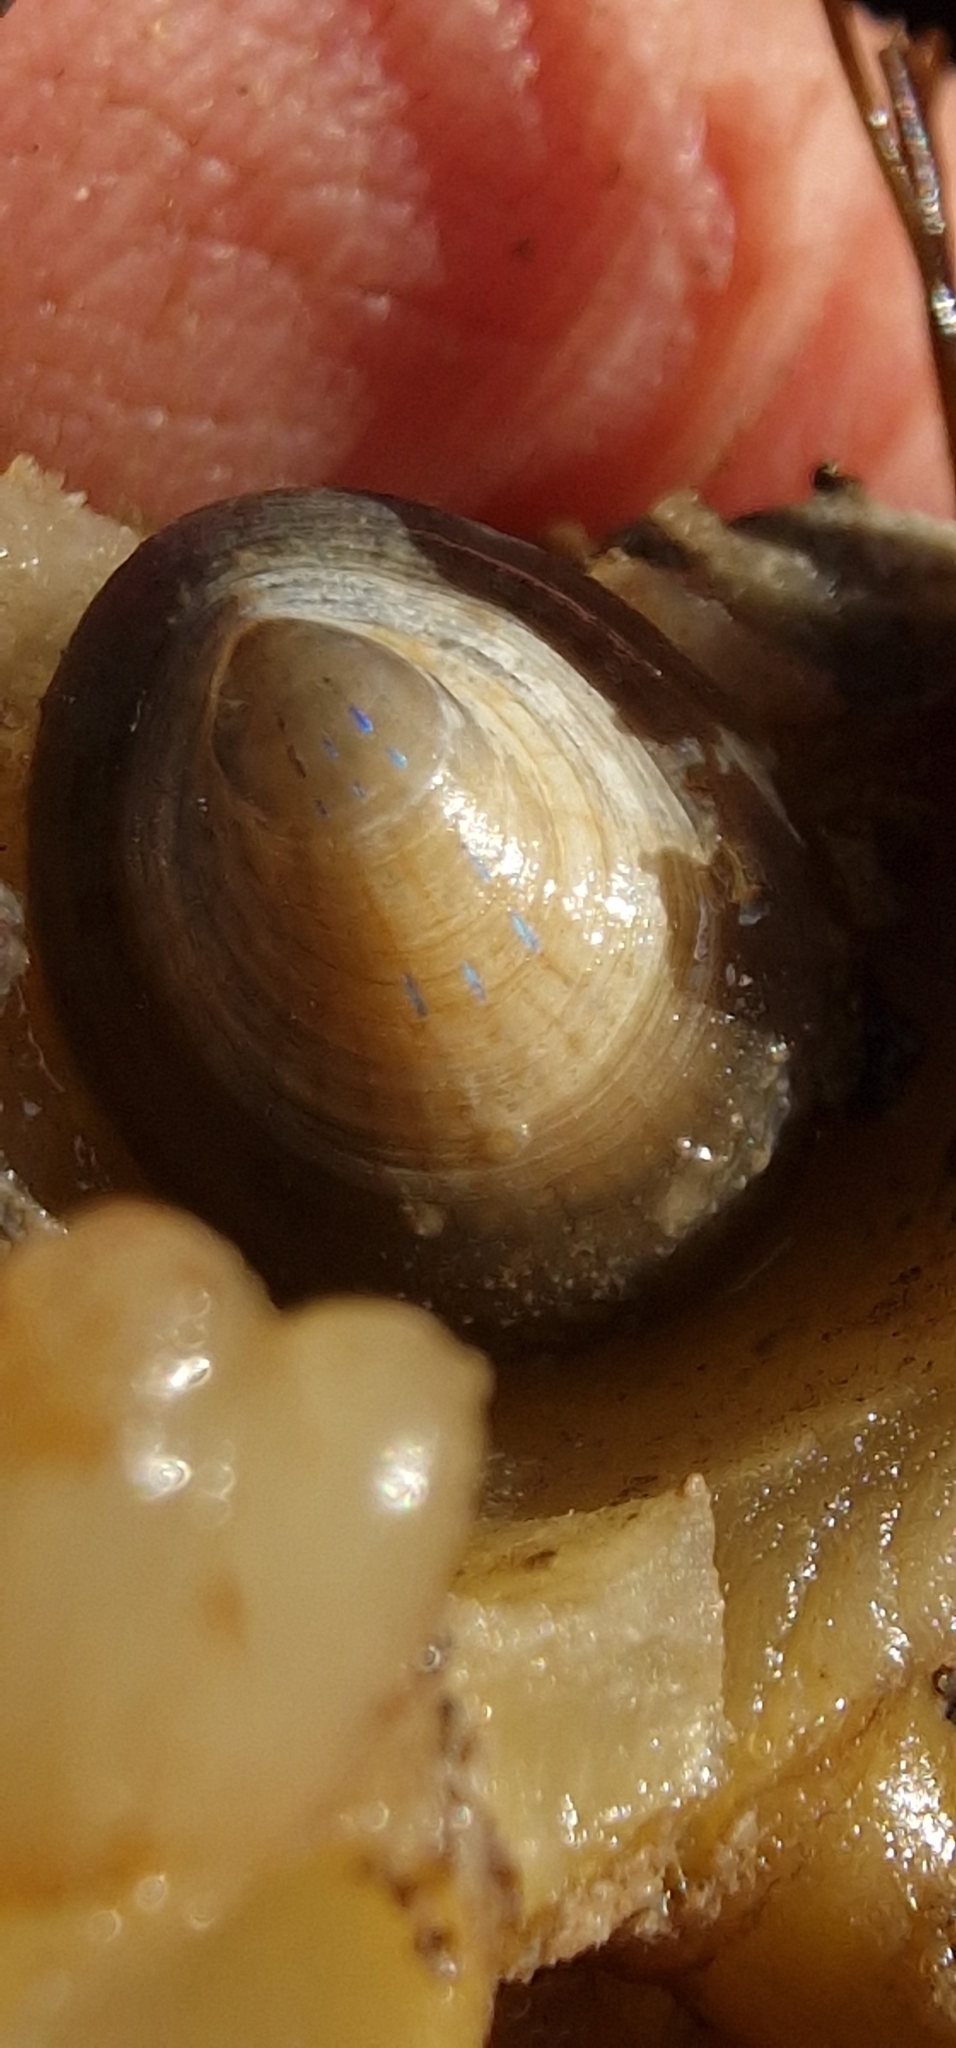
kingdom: Animalia
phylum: Mollusca
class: Gastropoda
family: Patellidae
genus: Patella
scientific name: Patella pellucida
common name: Blue-rayed limpet
